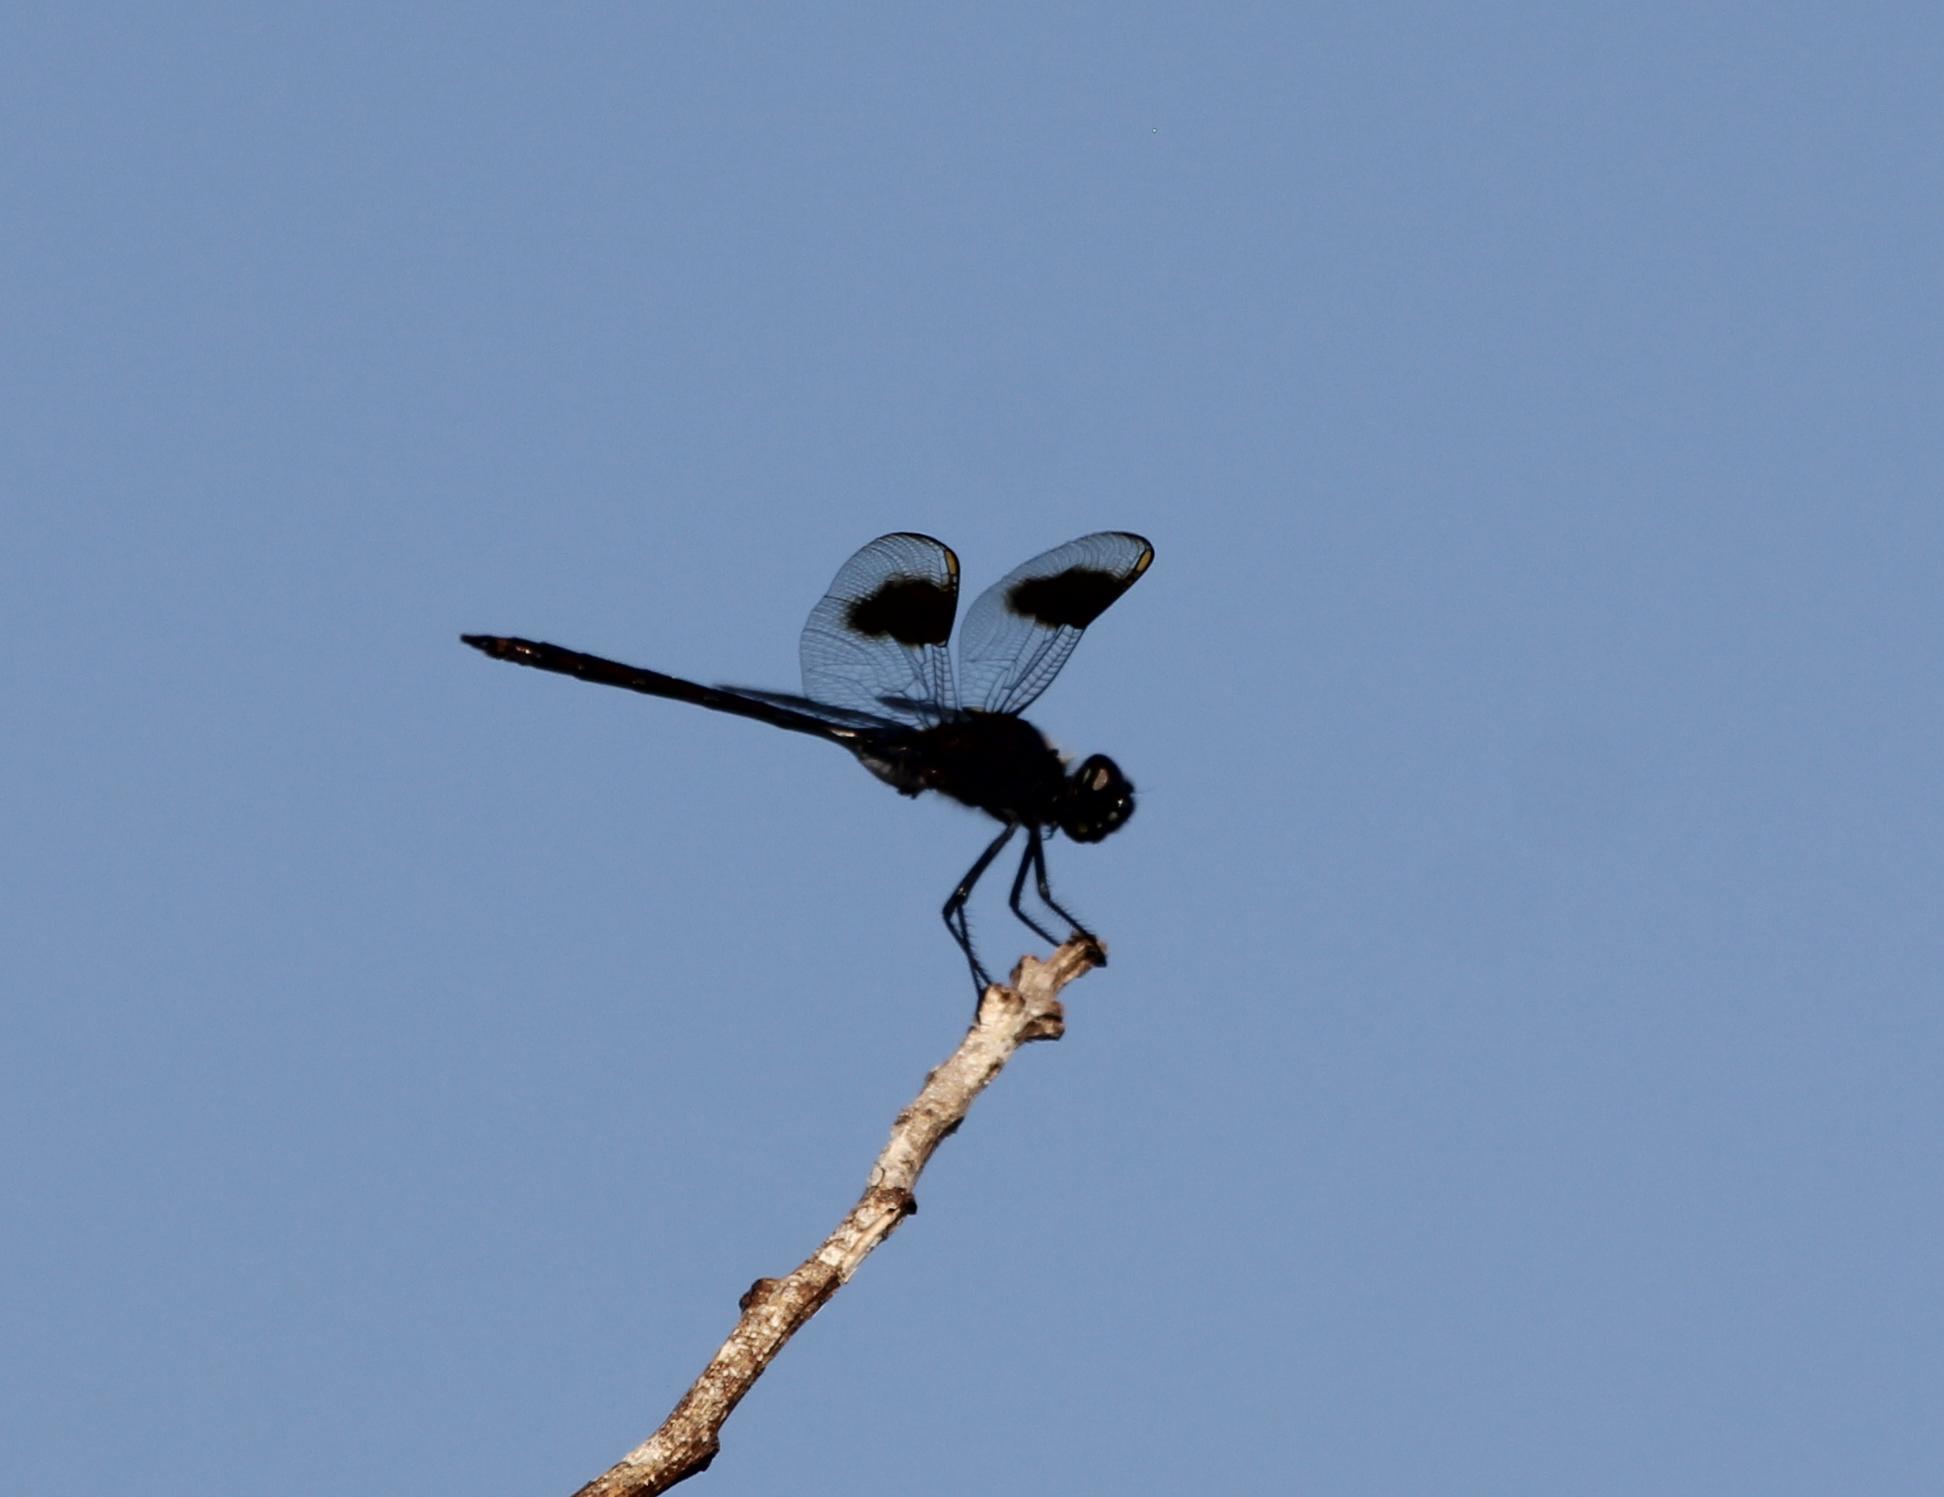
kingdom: Animalia
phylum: Arthropoda
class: Insecta
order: Odonata
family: Libellulidae
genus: Brachymesia
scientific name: Brachymesia gravida
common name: Four-spotted pennant
